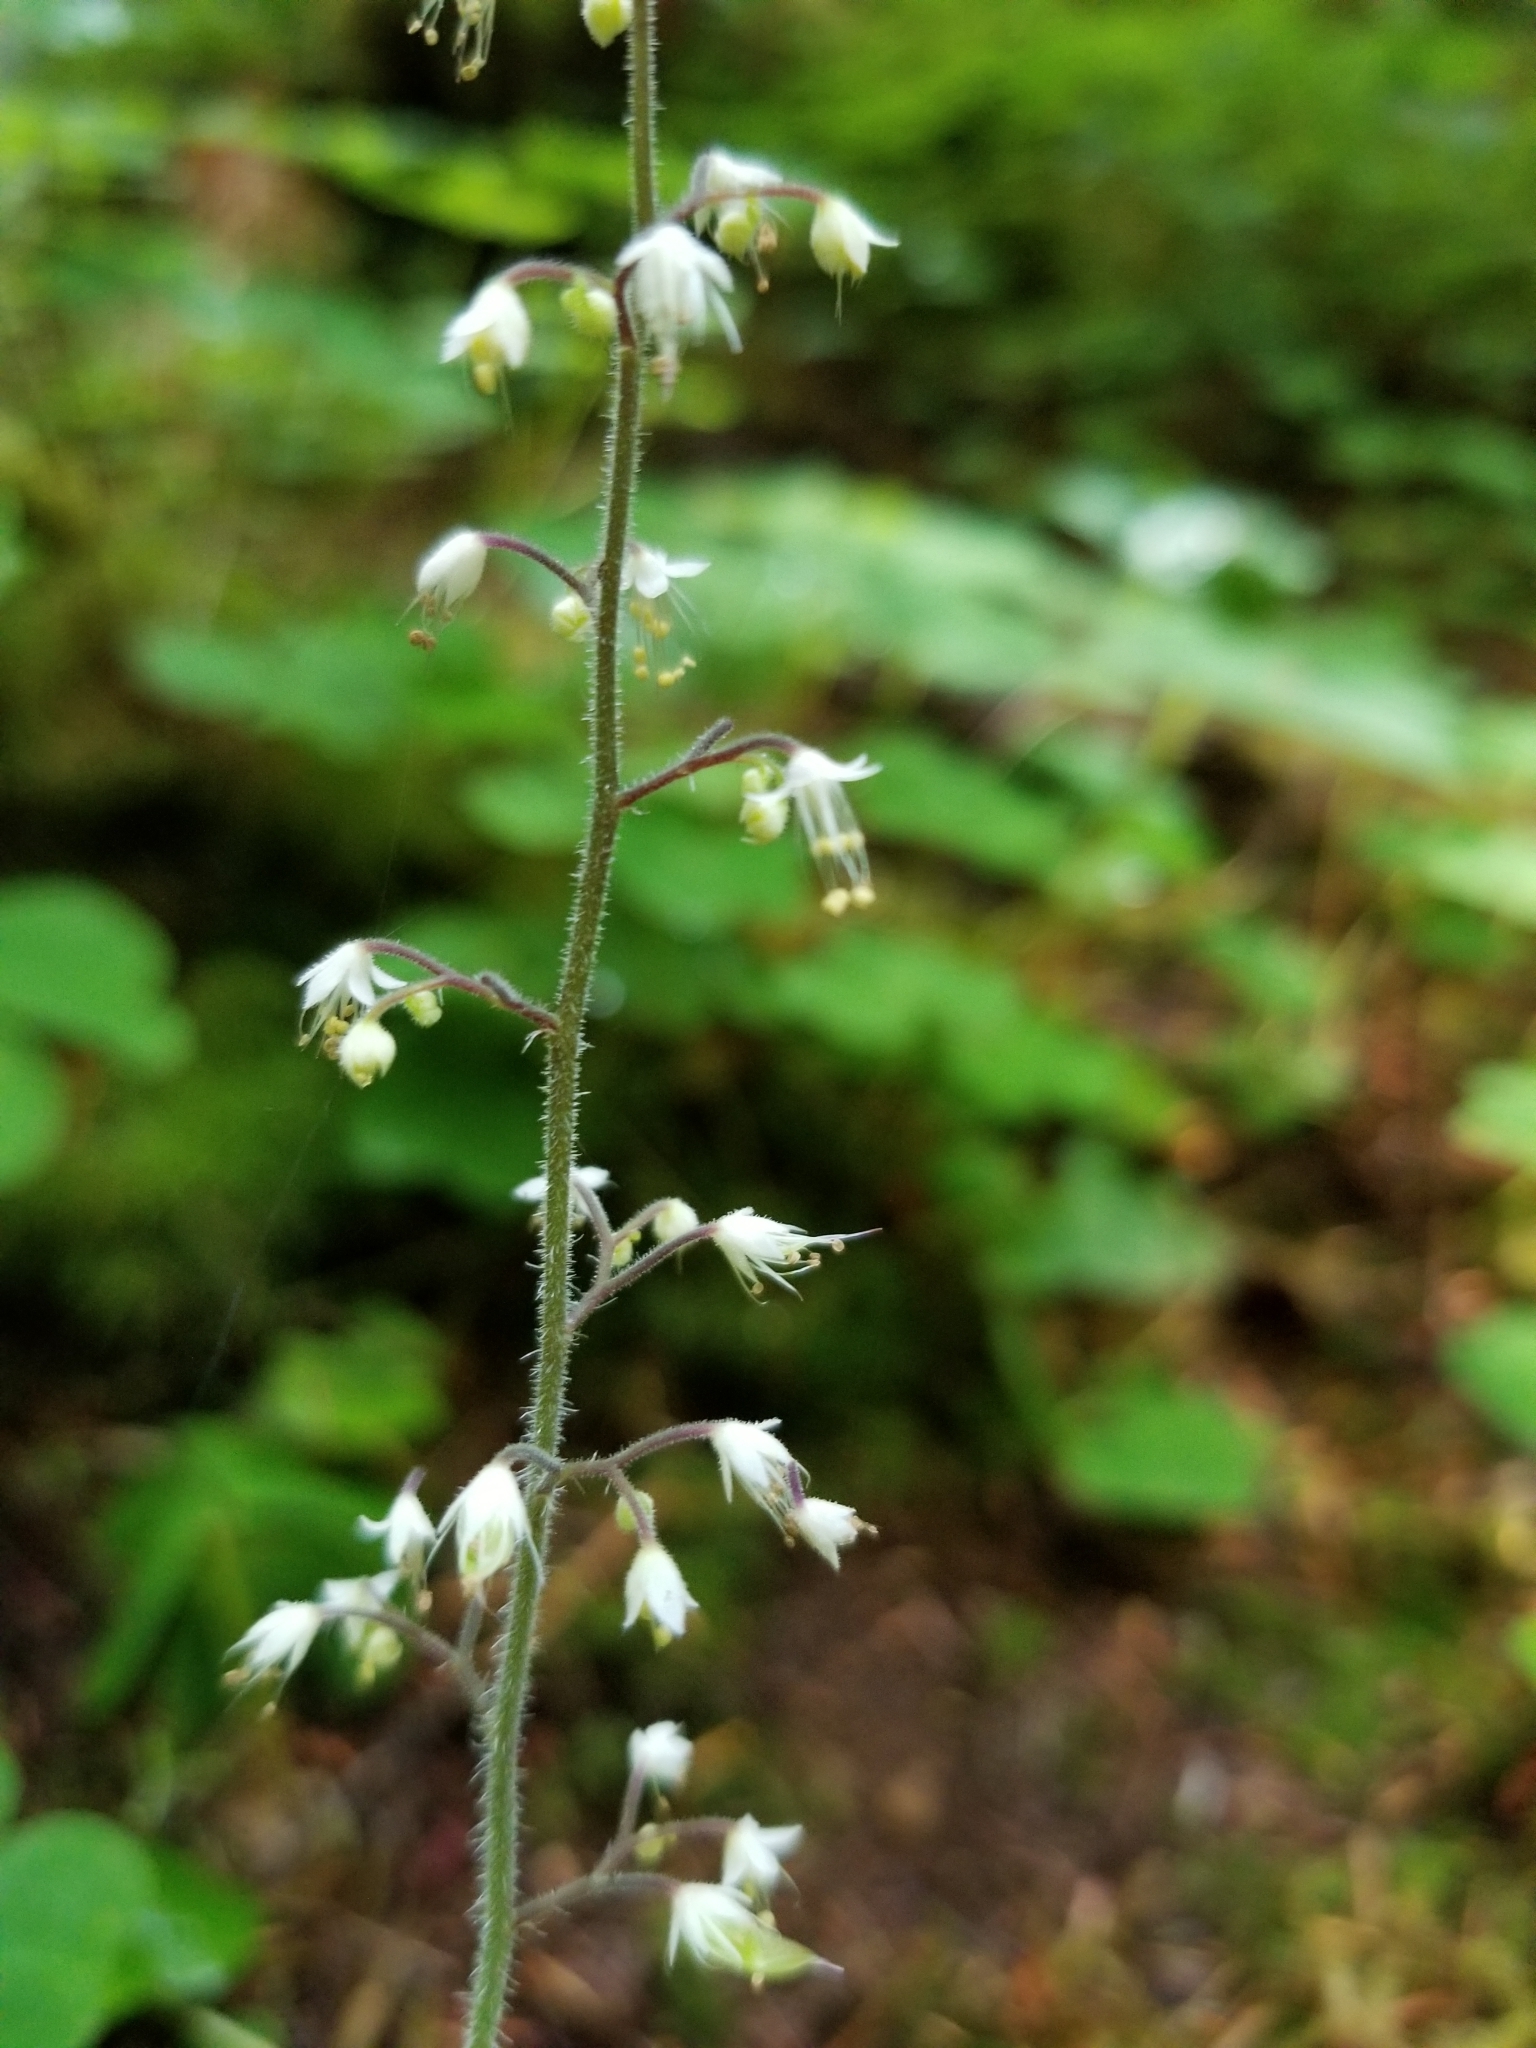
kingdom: Plantae
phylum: Tracheophyta
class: Magnoliopsida
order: Saxifragales
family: Saxifragaceae
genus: Tiarella
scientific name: Tiarella trifoliata
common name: Sugar-scoop
